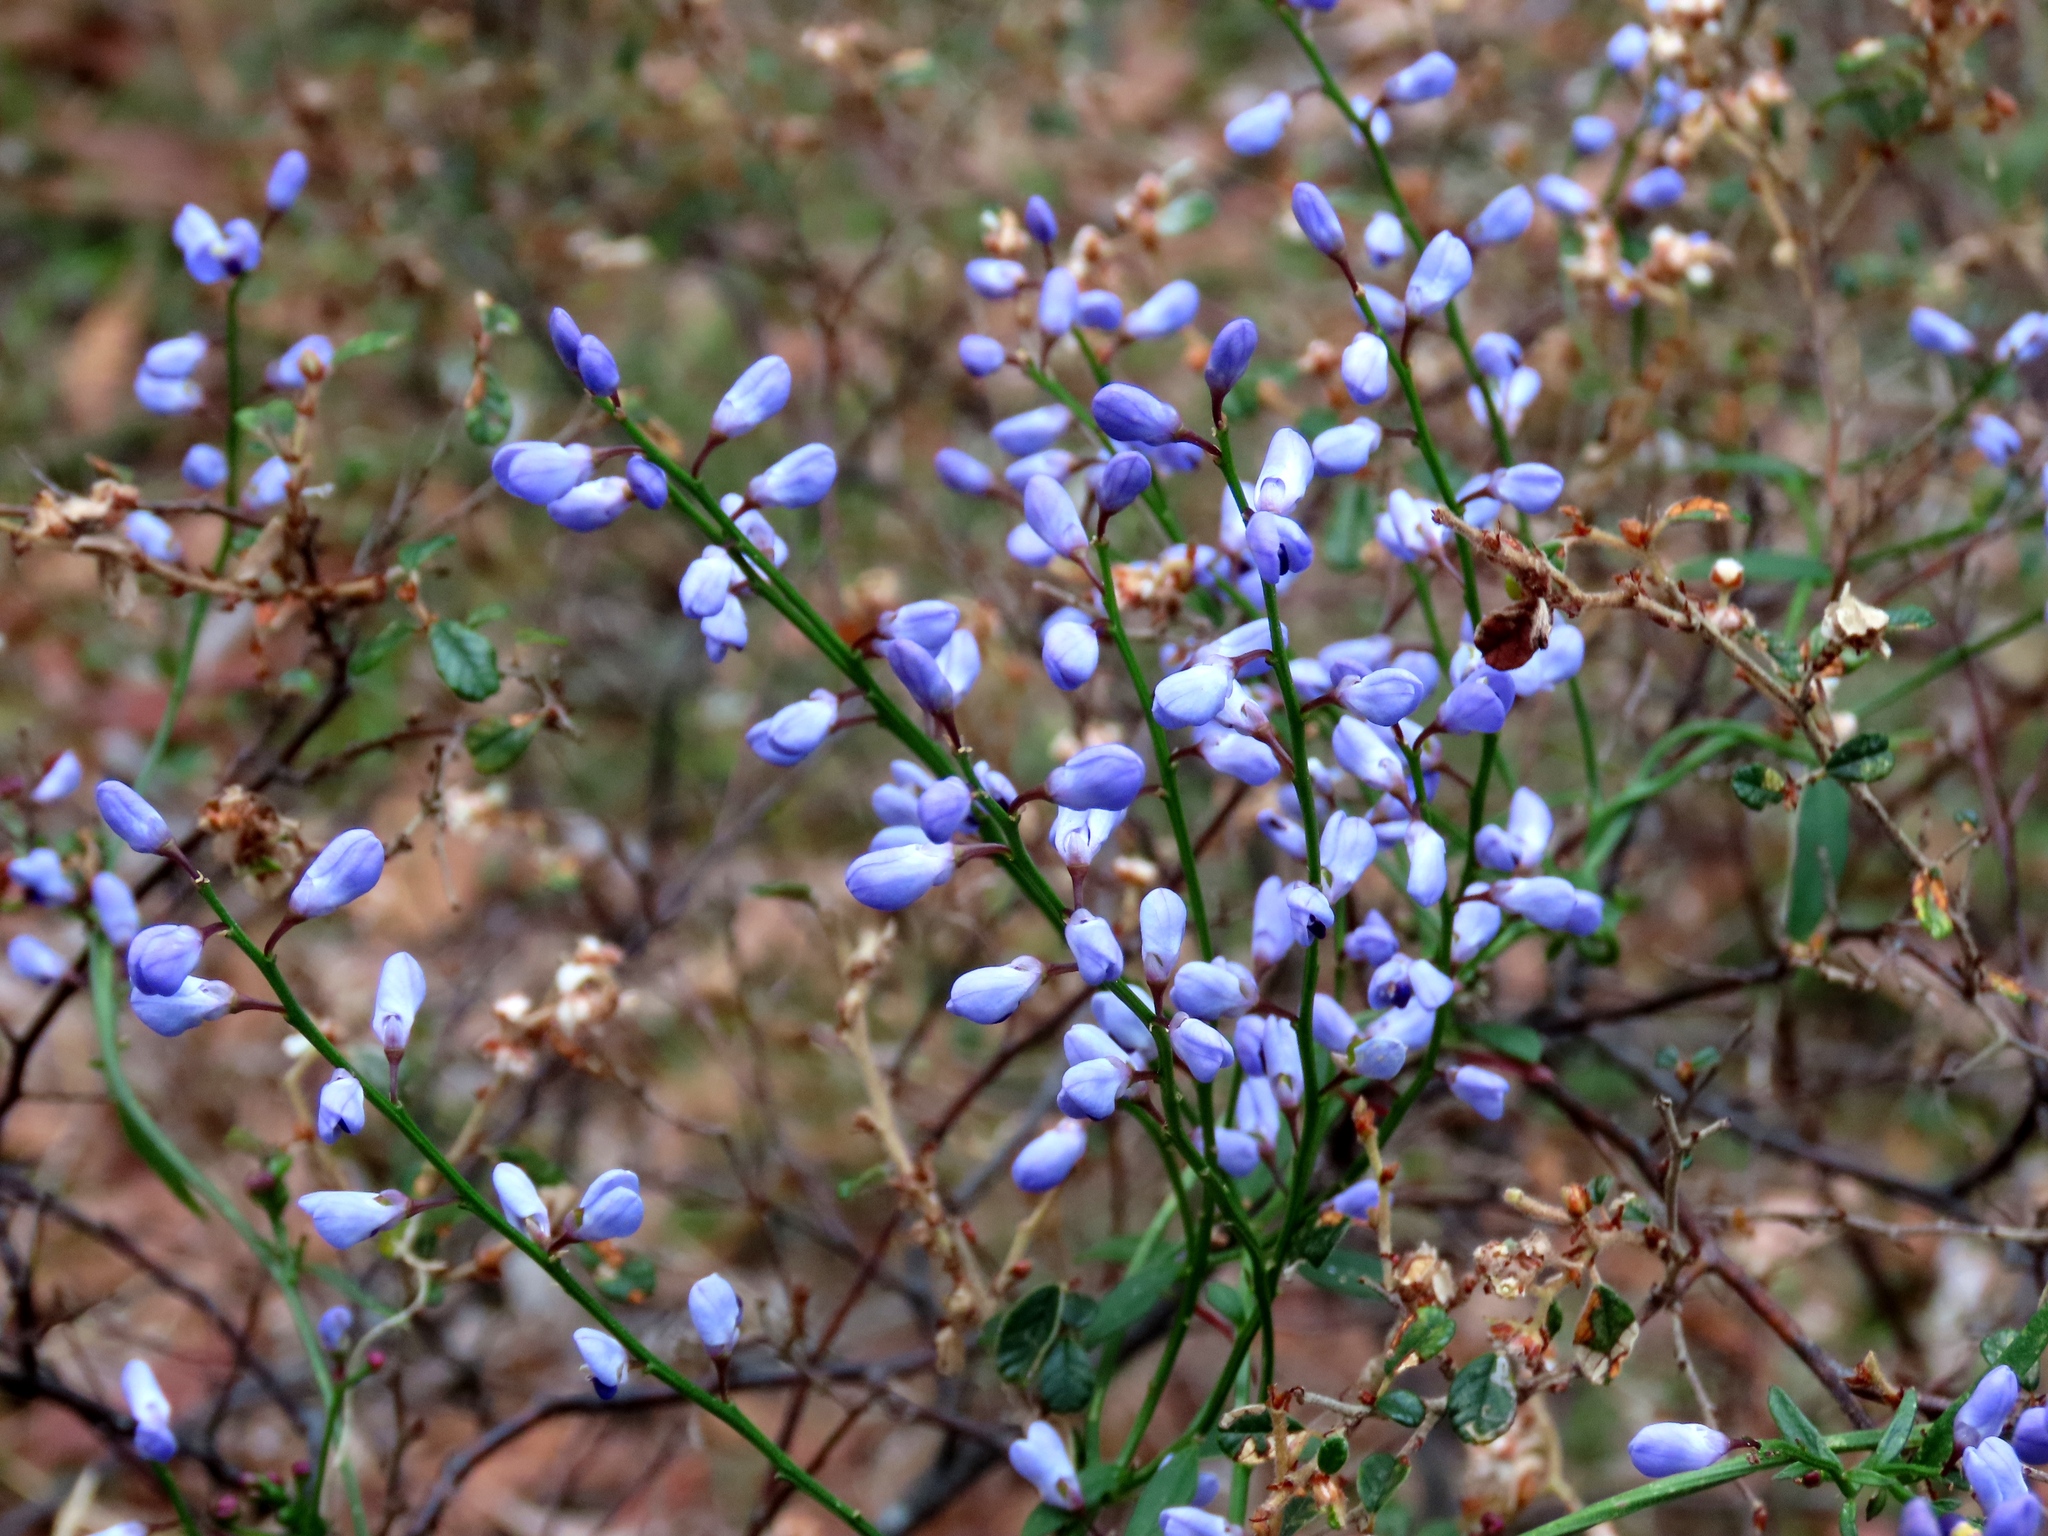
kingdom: Plantae
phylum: Tracheophyta
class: Magnoliopsida
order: Fabales
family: Polygalaceae
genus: Comesperma
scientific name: Comesperma volubile
